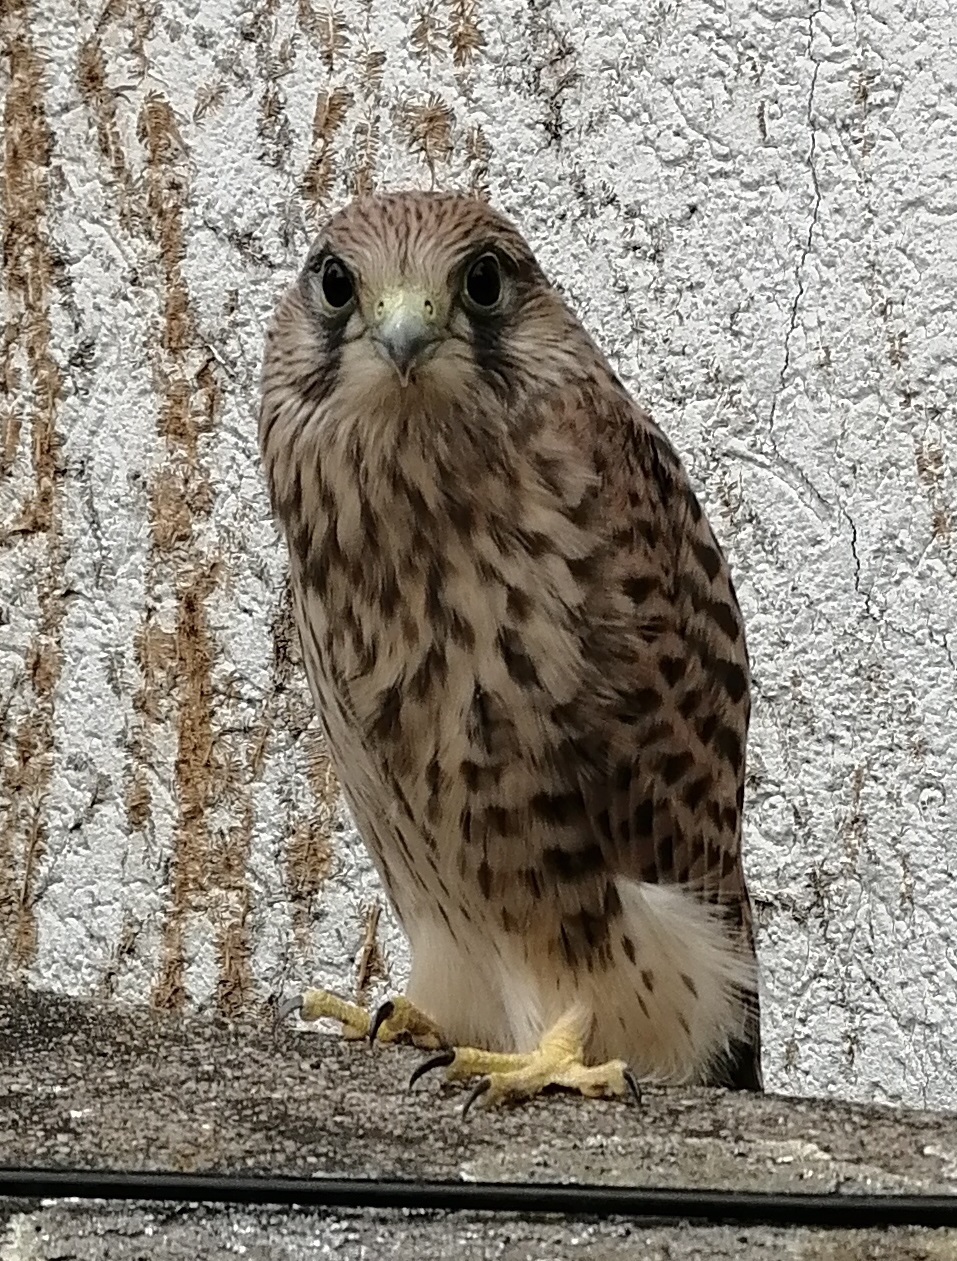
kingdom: Animalia
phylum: Chordata
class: Aves
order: Falconiformes
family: Falconidae
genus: Falco
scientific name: Falco tinnunculus
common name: Common kestrel
